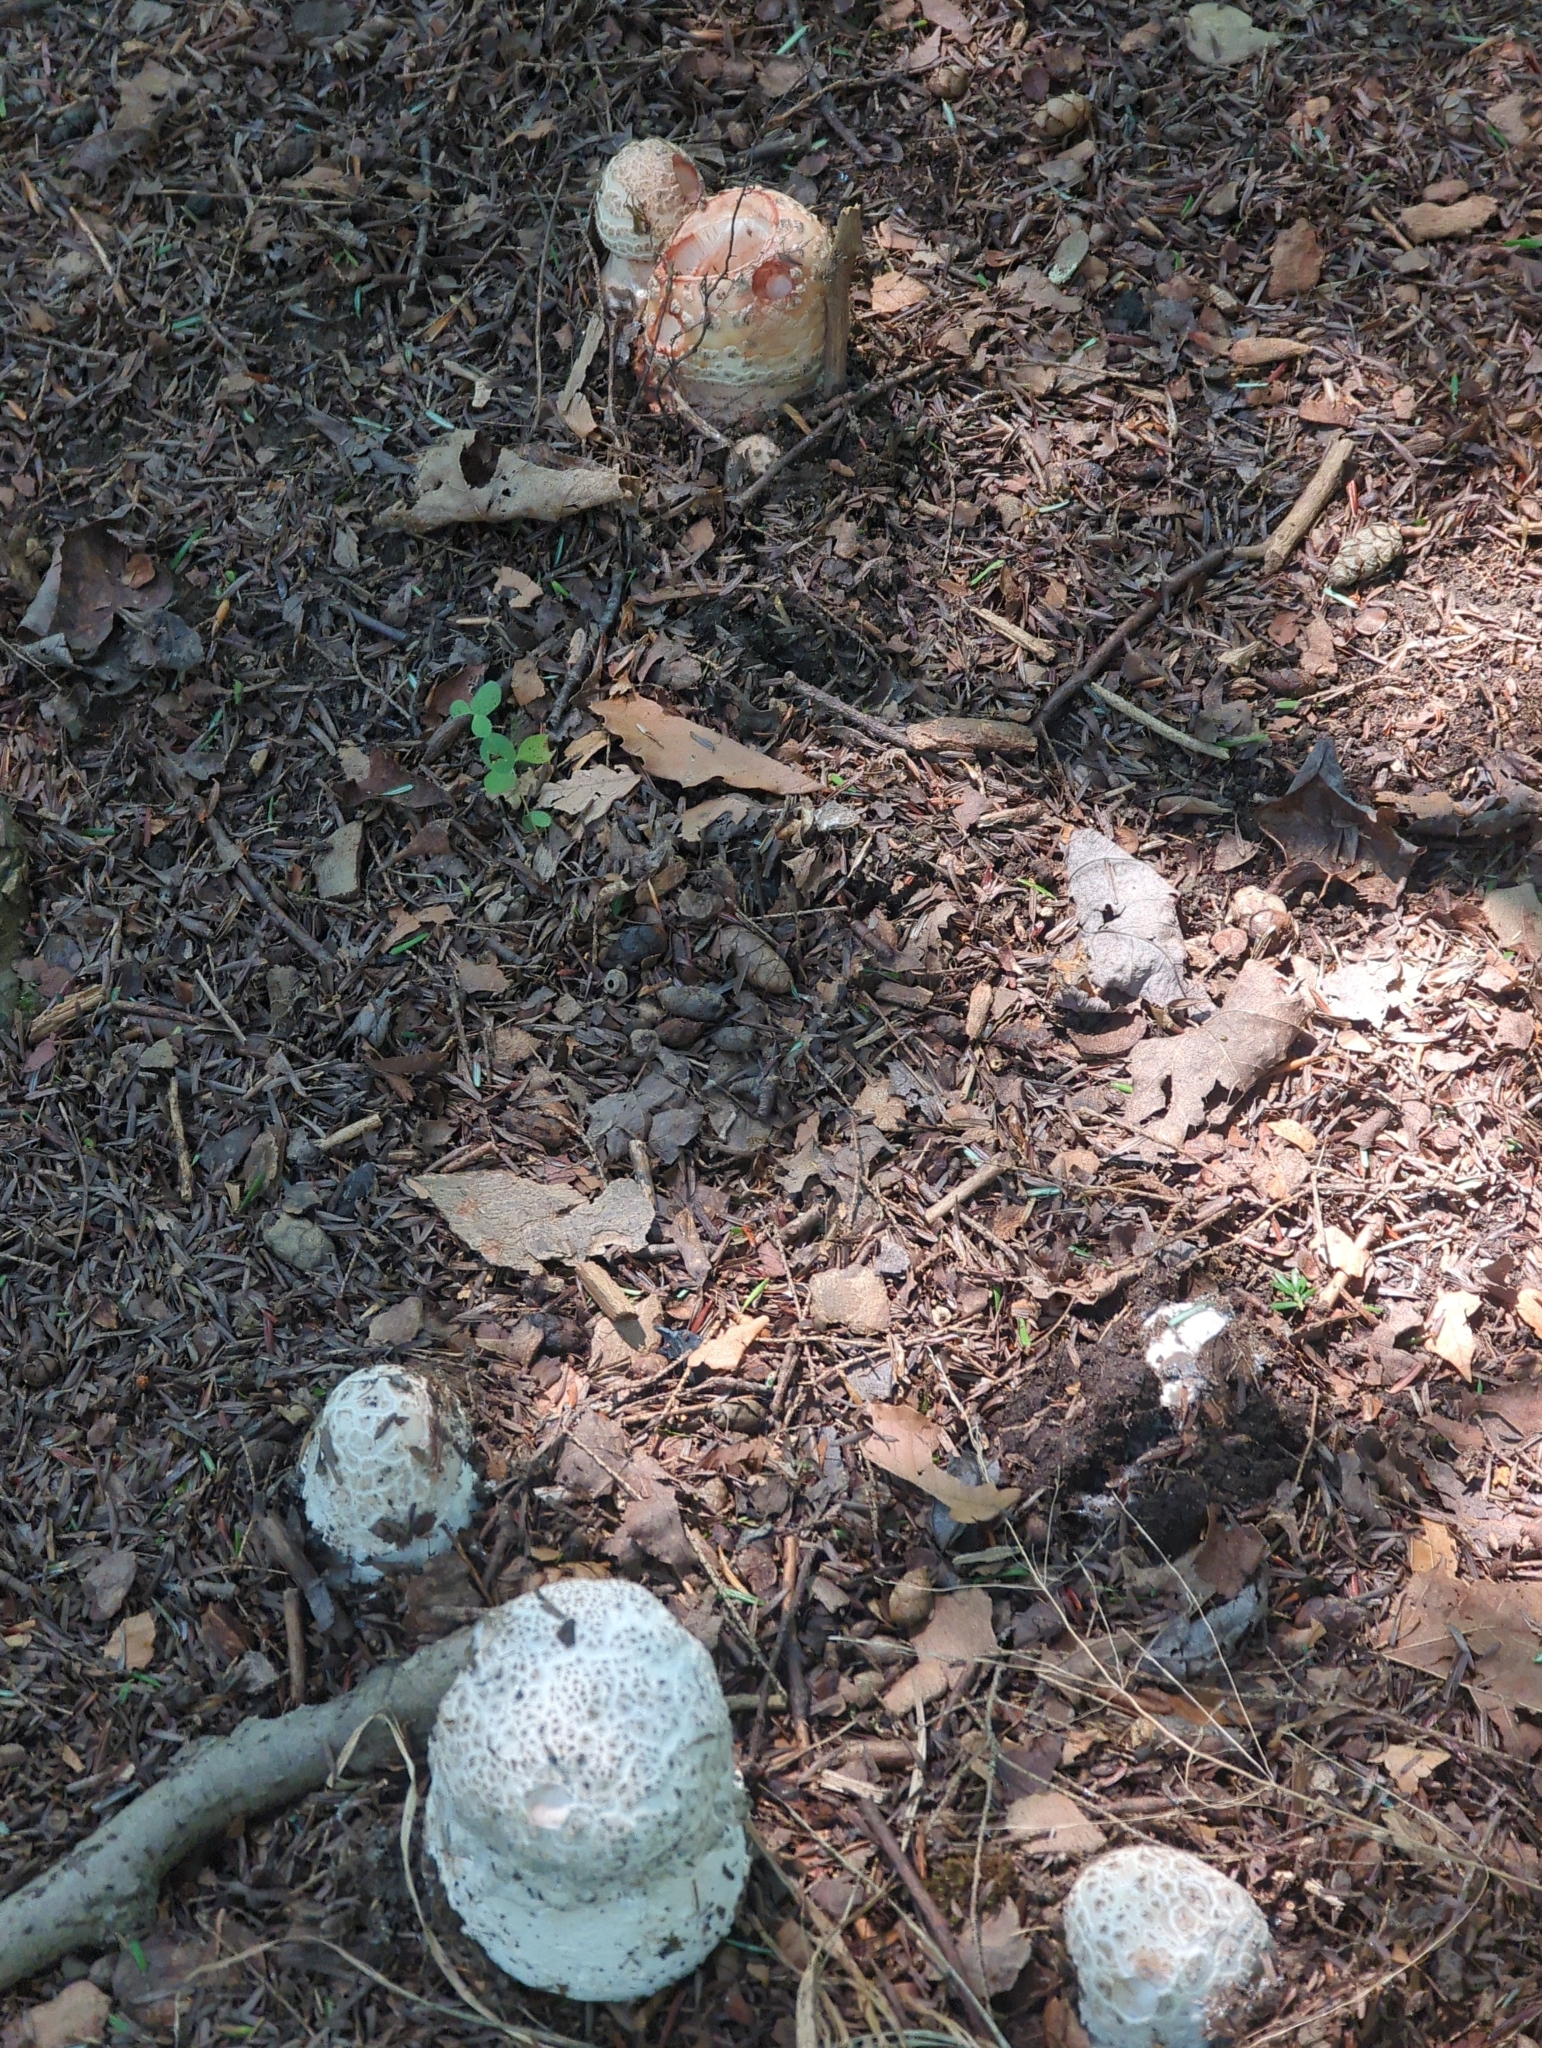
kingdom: Fungi
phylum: Ascomycota
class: Sordariomycetes
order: Hypocreales
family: Hypocreaceae
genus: Hypomyces
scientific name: Hypomyces hyalinus
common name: Amanita mold
